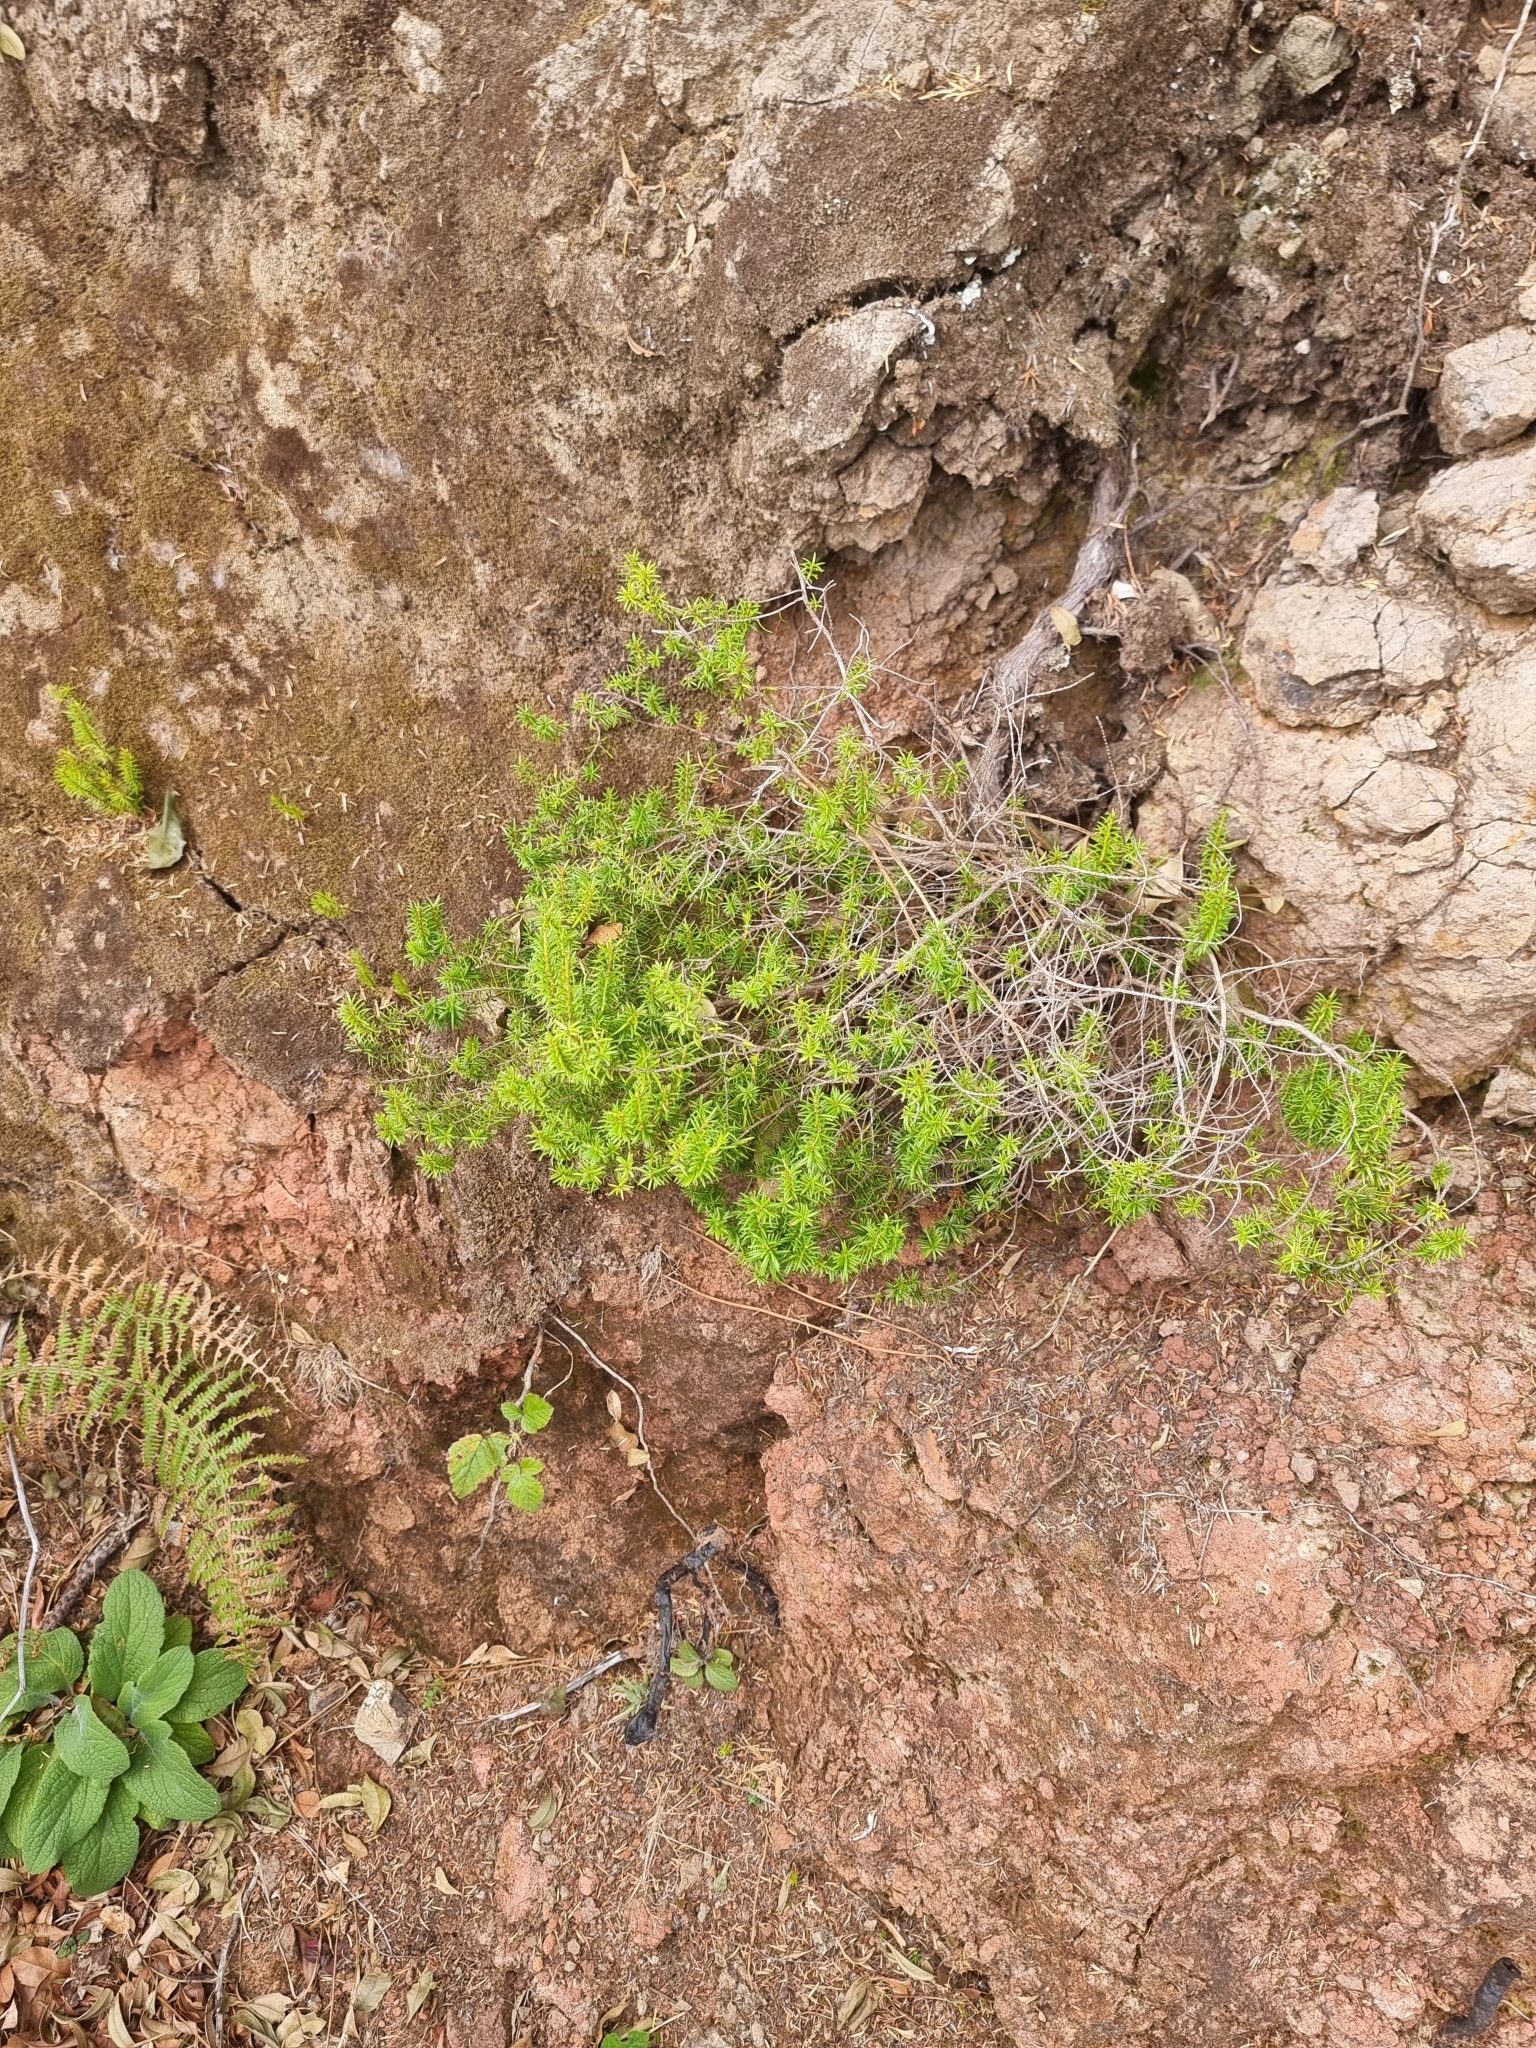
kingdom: Plantae
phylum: Tracheophyta
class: Magnoliopsida
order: Ericales
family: Ericaceae
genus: Erica
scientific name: Erica platycodon
